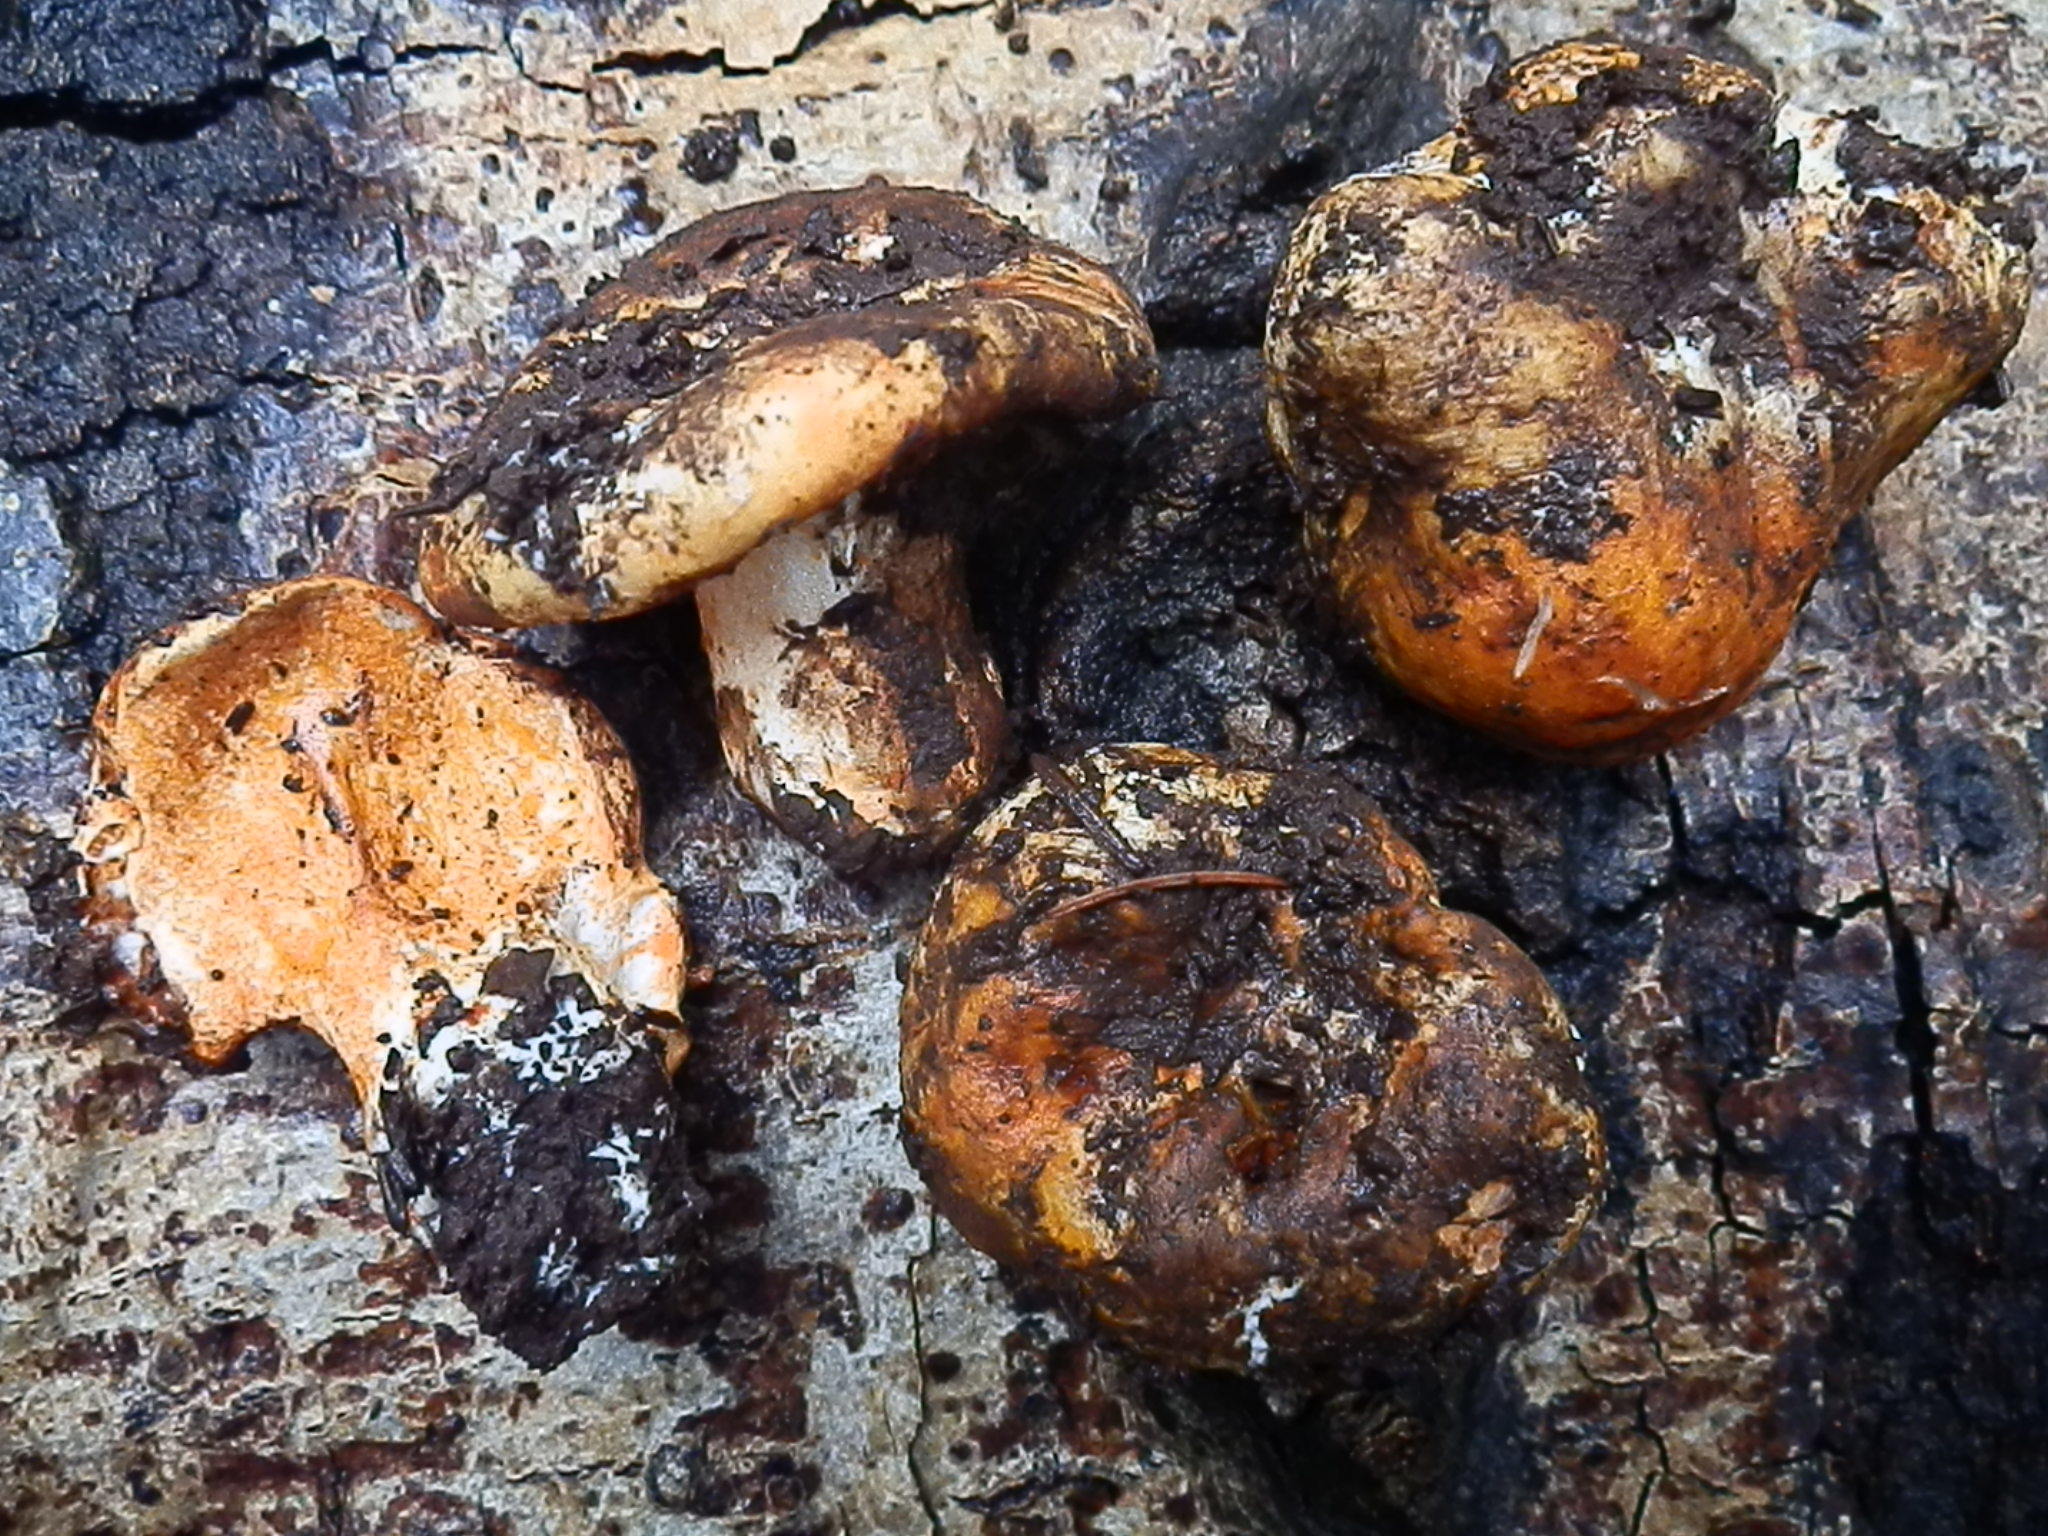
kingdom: Fungi
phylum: Ascomycota
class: Sordariomycetes
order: Hypocreales
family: Hypocreaceae
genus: Hypomyces
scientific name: Hypomyces lactifluorum
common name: Lobster mushroom
